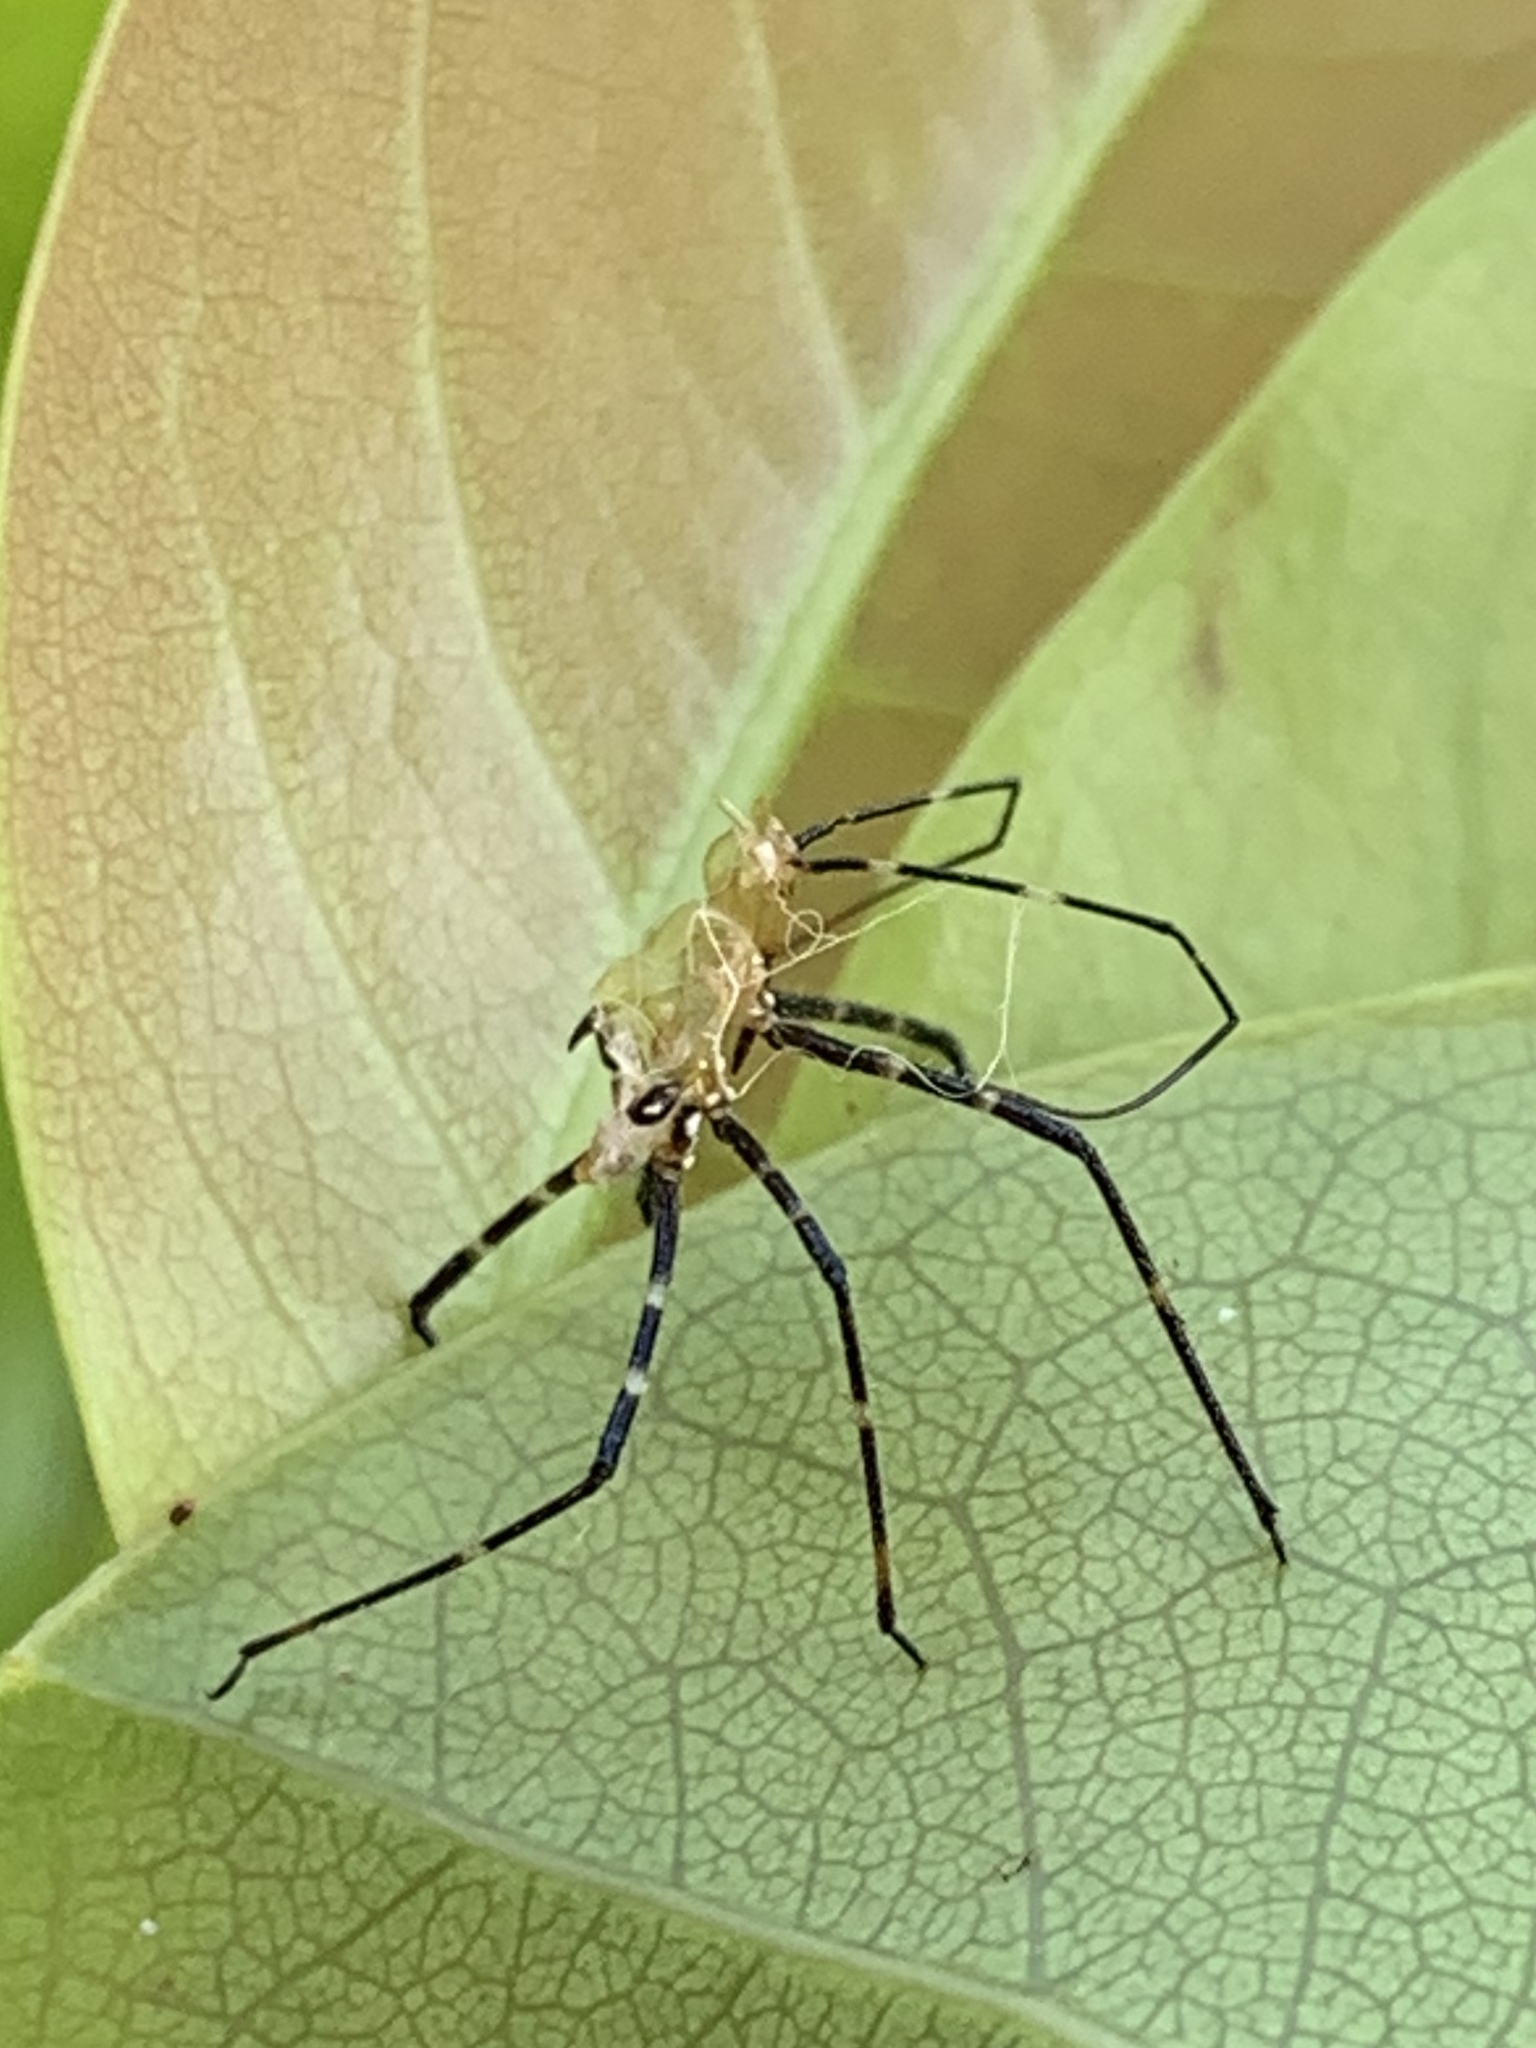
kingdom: Animalia
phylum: Arthropoda
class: Insecta
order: Hemiptera
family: Reduviidae
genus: Zelus
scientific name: Zelus longipes
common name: Milkweed assassin bug
